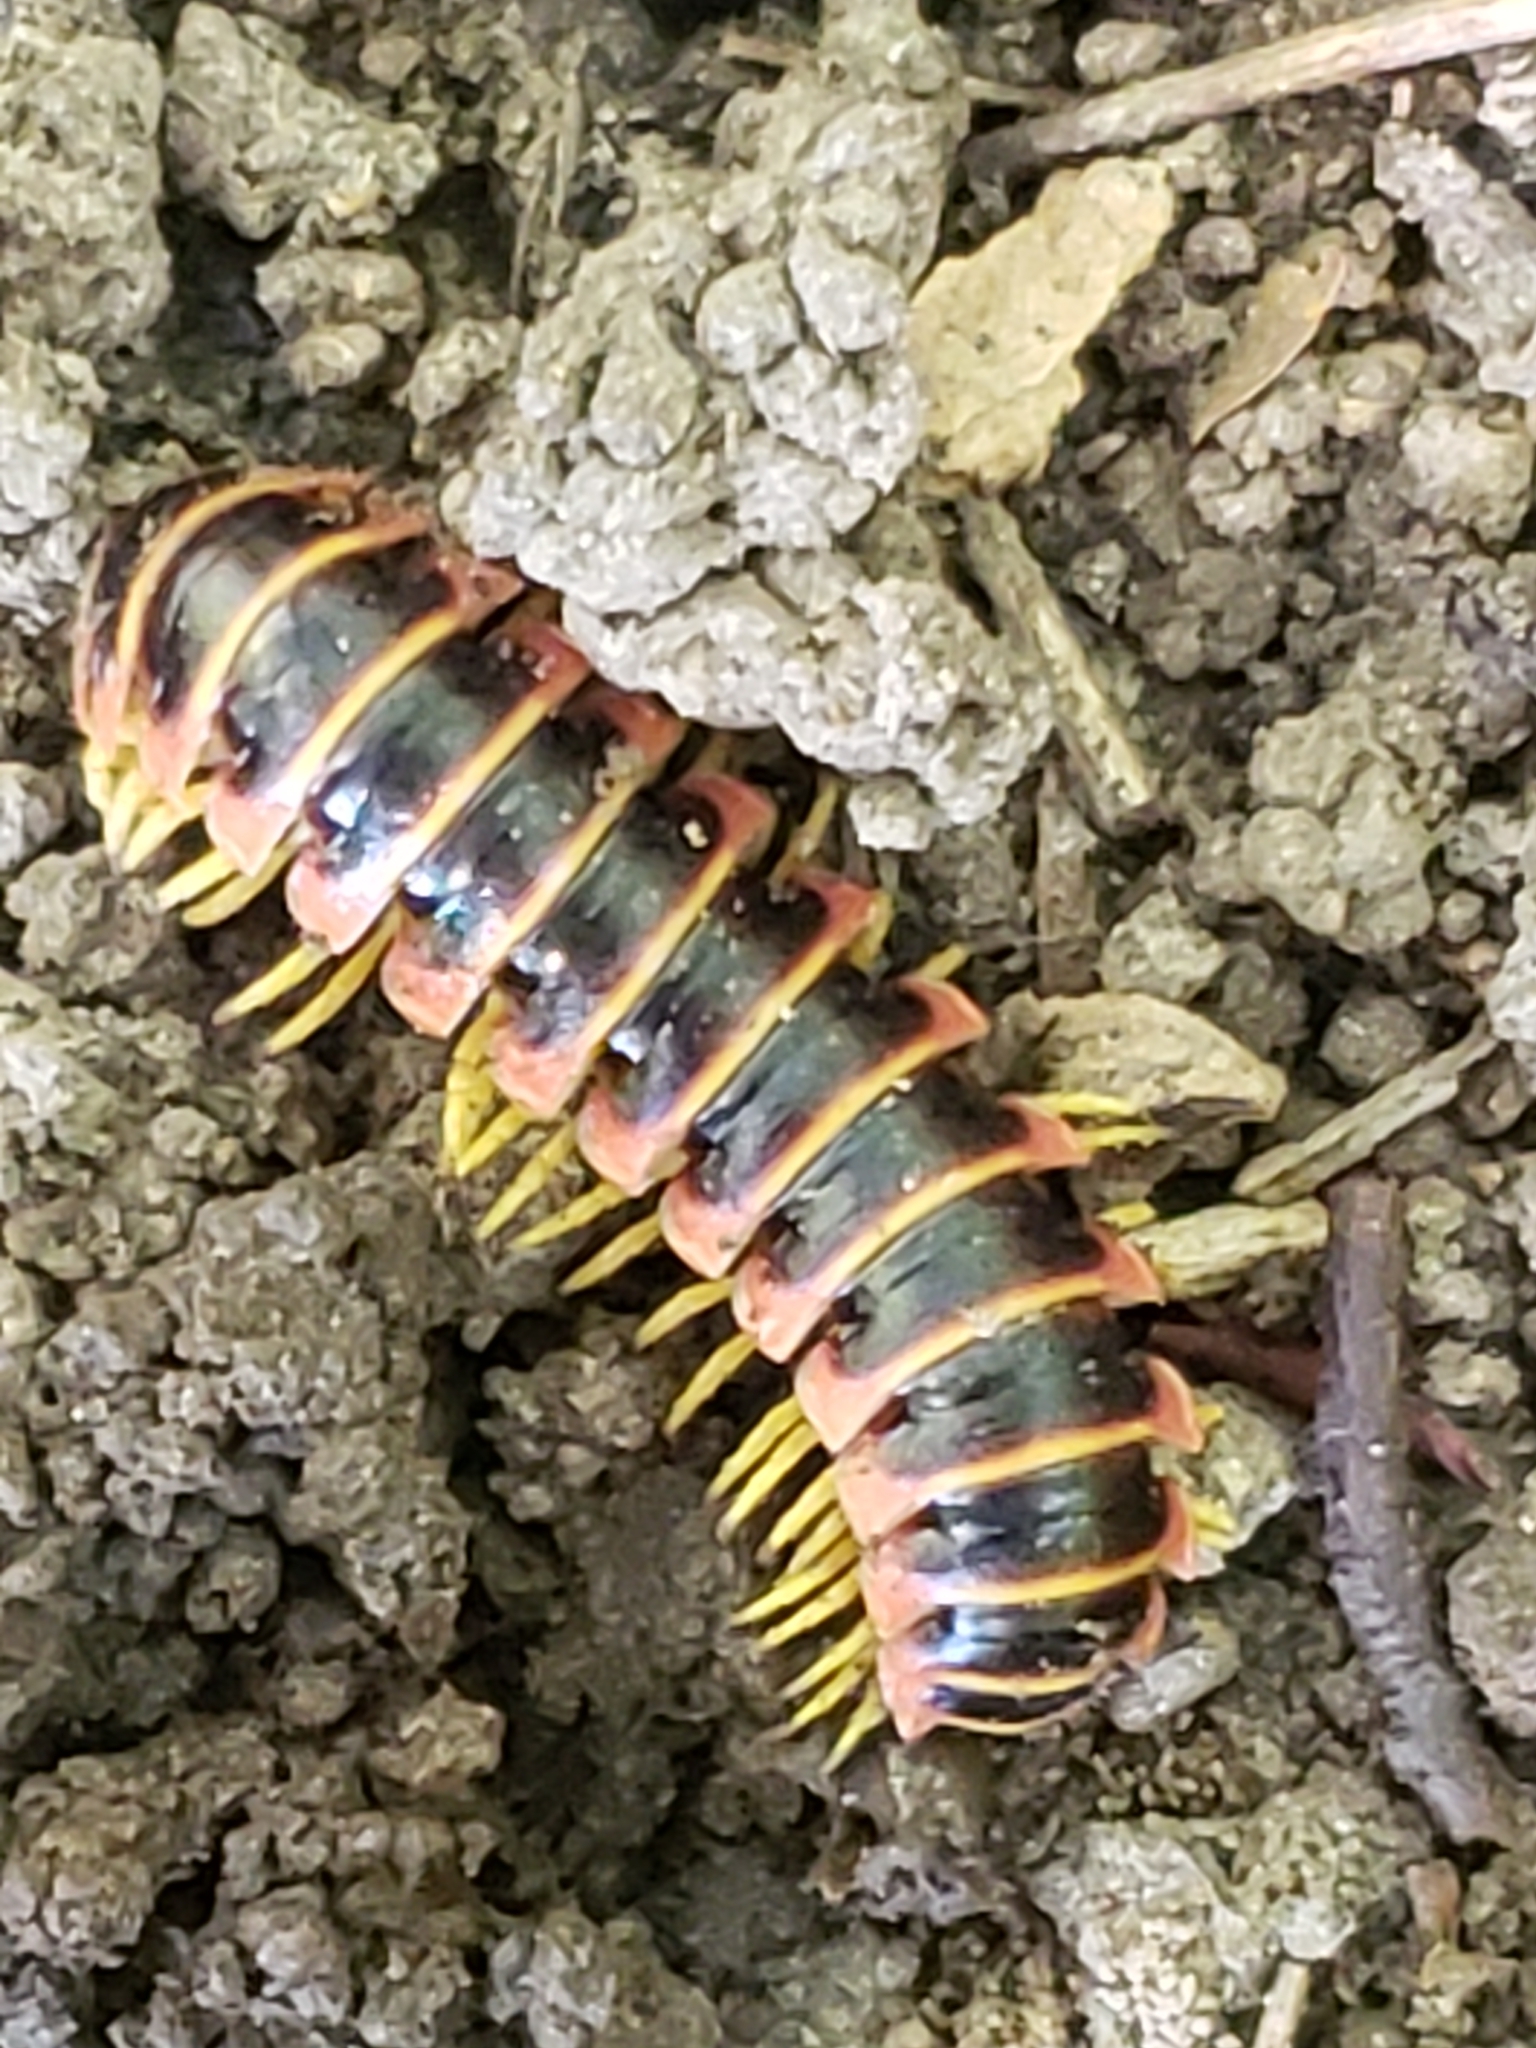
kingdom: Animalia
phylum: Arthropoda
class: Diplopoda
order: Polydesmida
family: Xystodesmidae
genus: Apheloria
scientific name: Apheloria virginiensis
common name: Black-and-gold flat millipede
